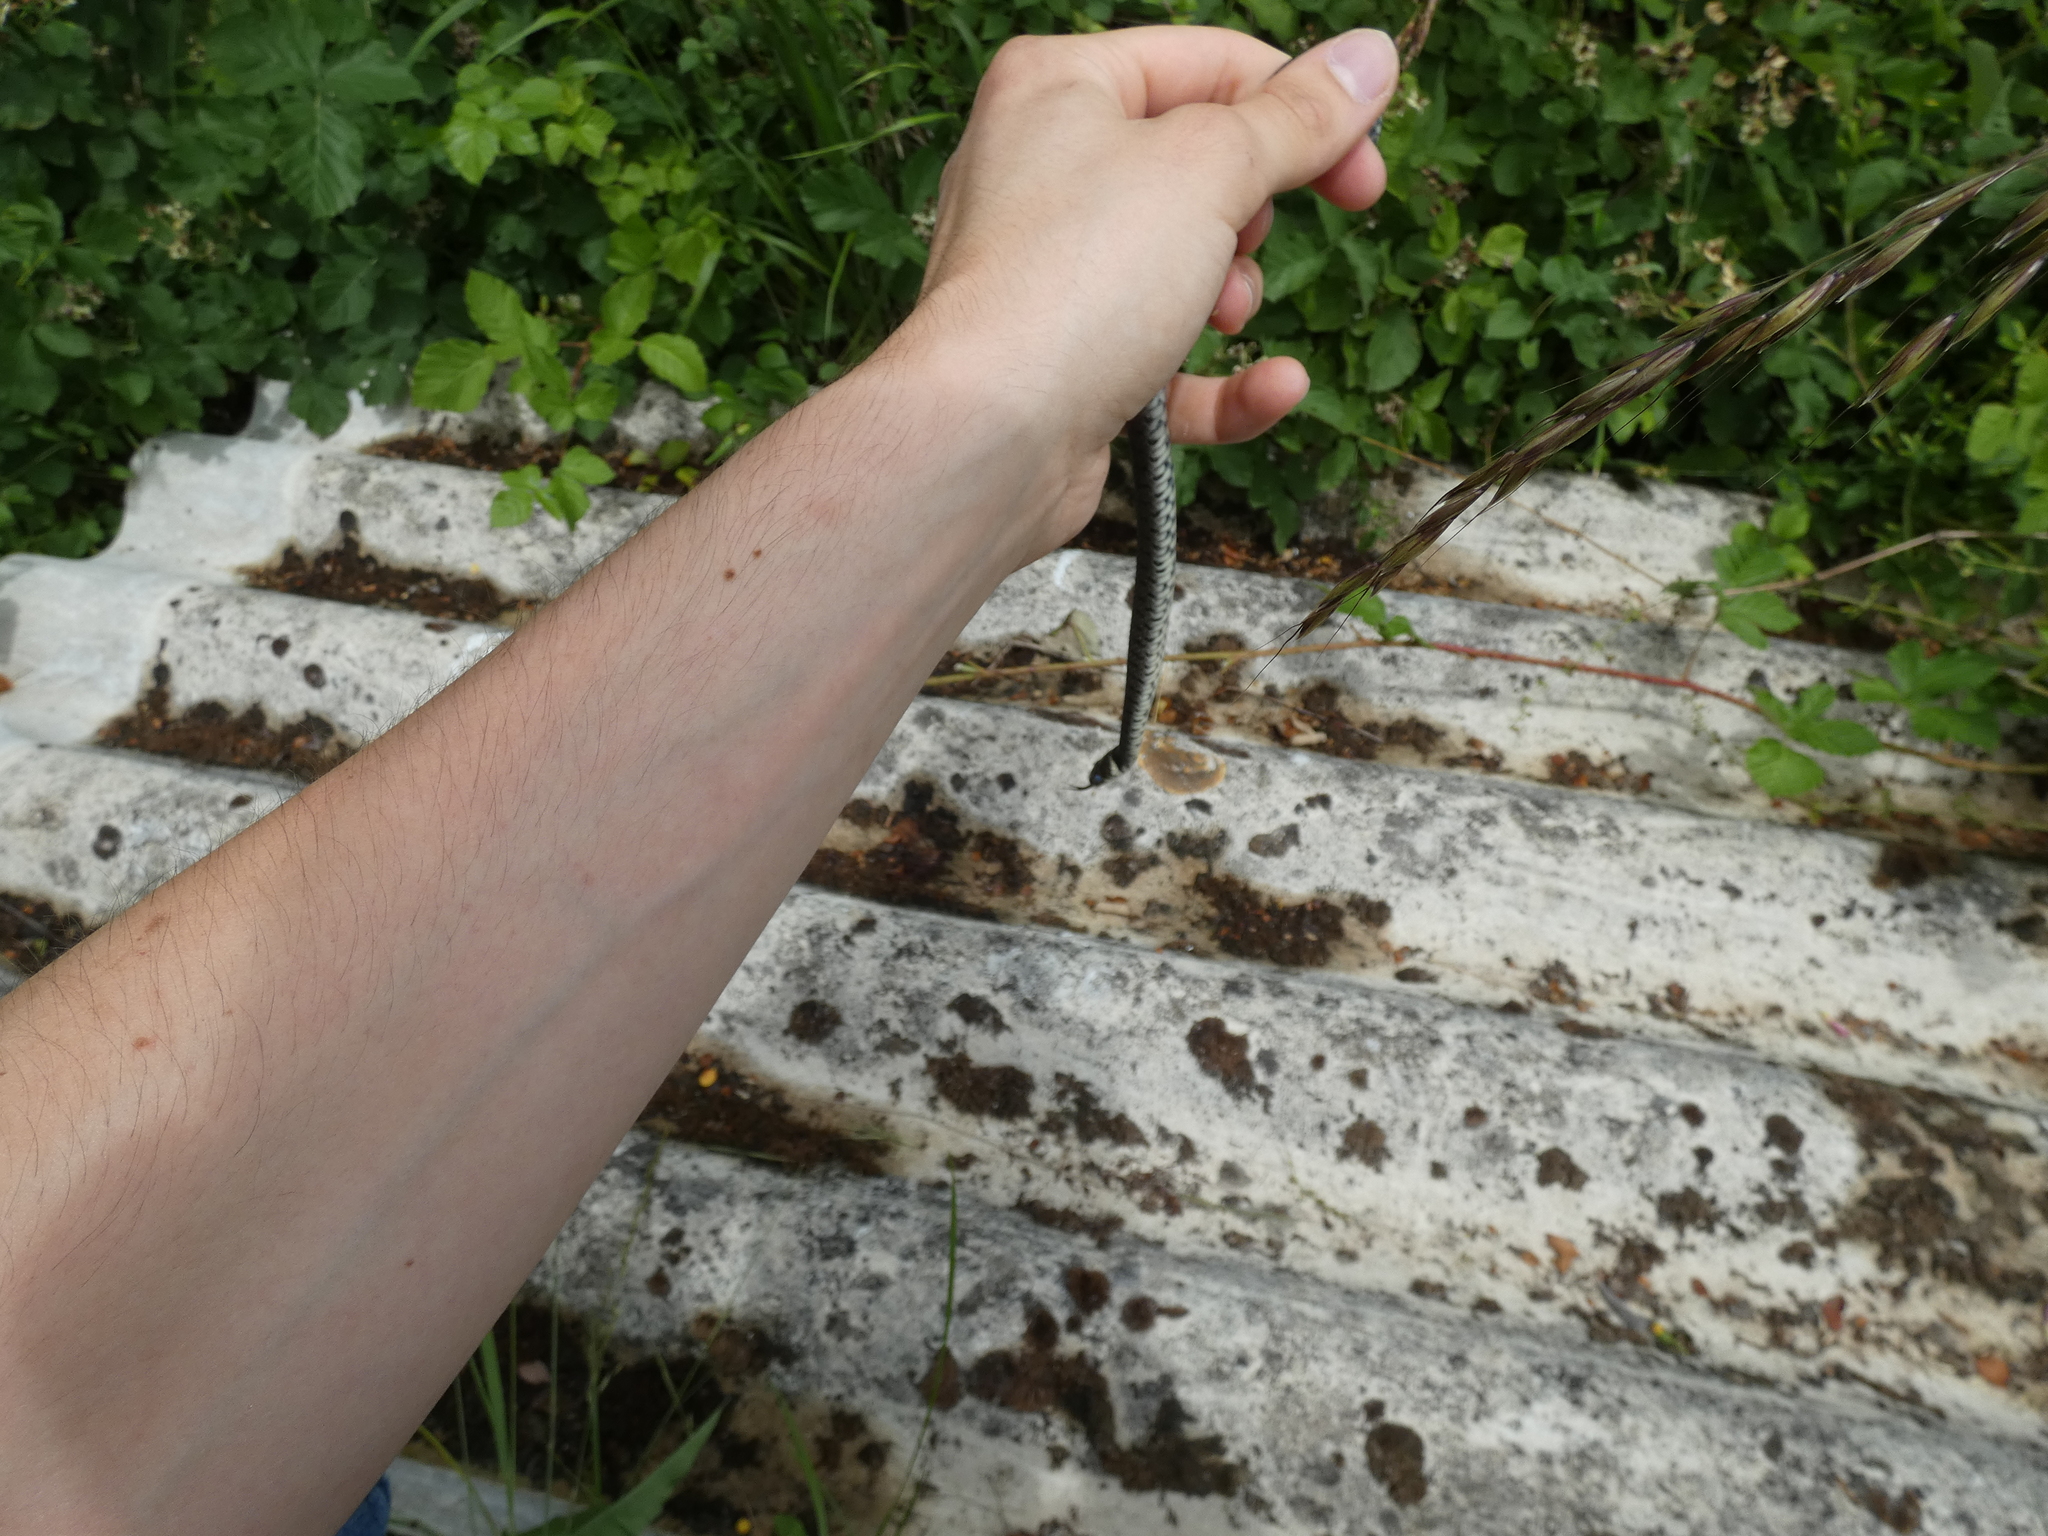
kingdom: Animalia
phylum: Chordata
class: Squamata
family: Colubridae
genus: Natrix
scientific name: Natrix helvetica
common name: Banded grass snake
